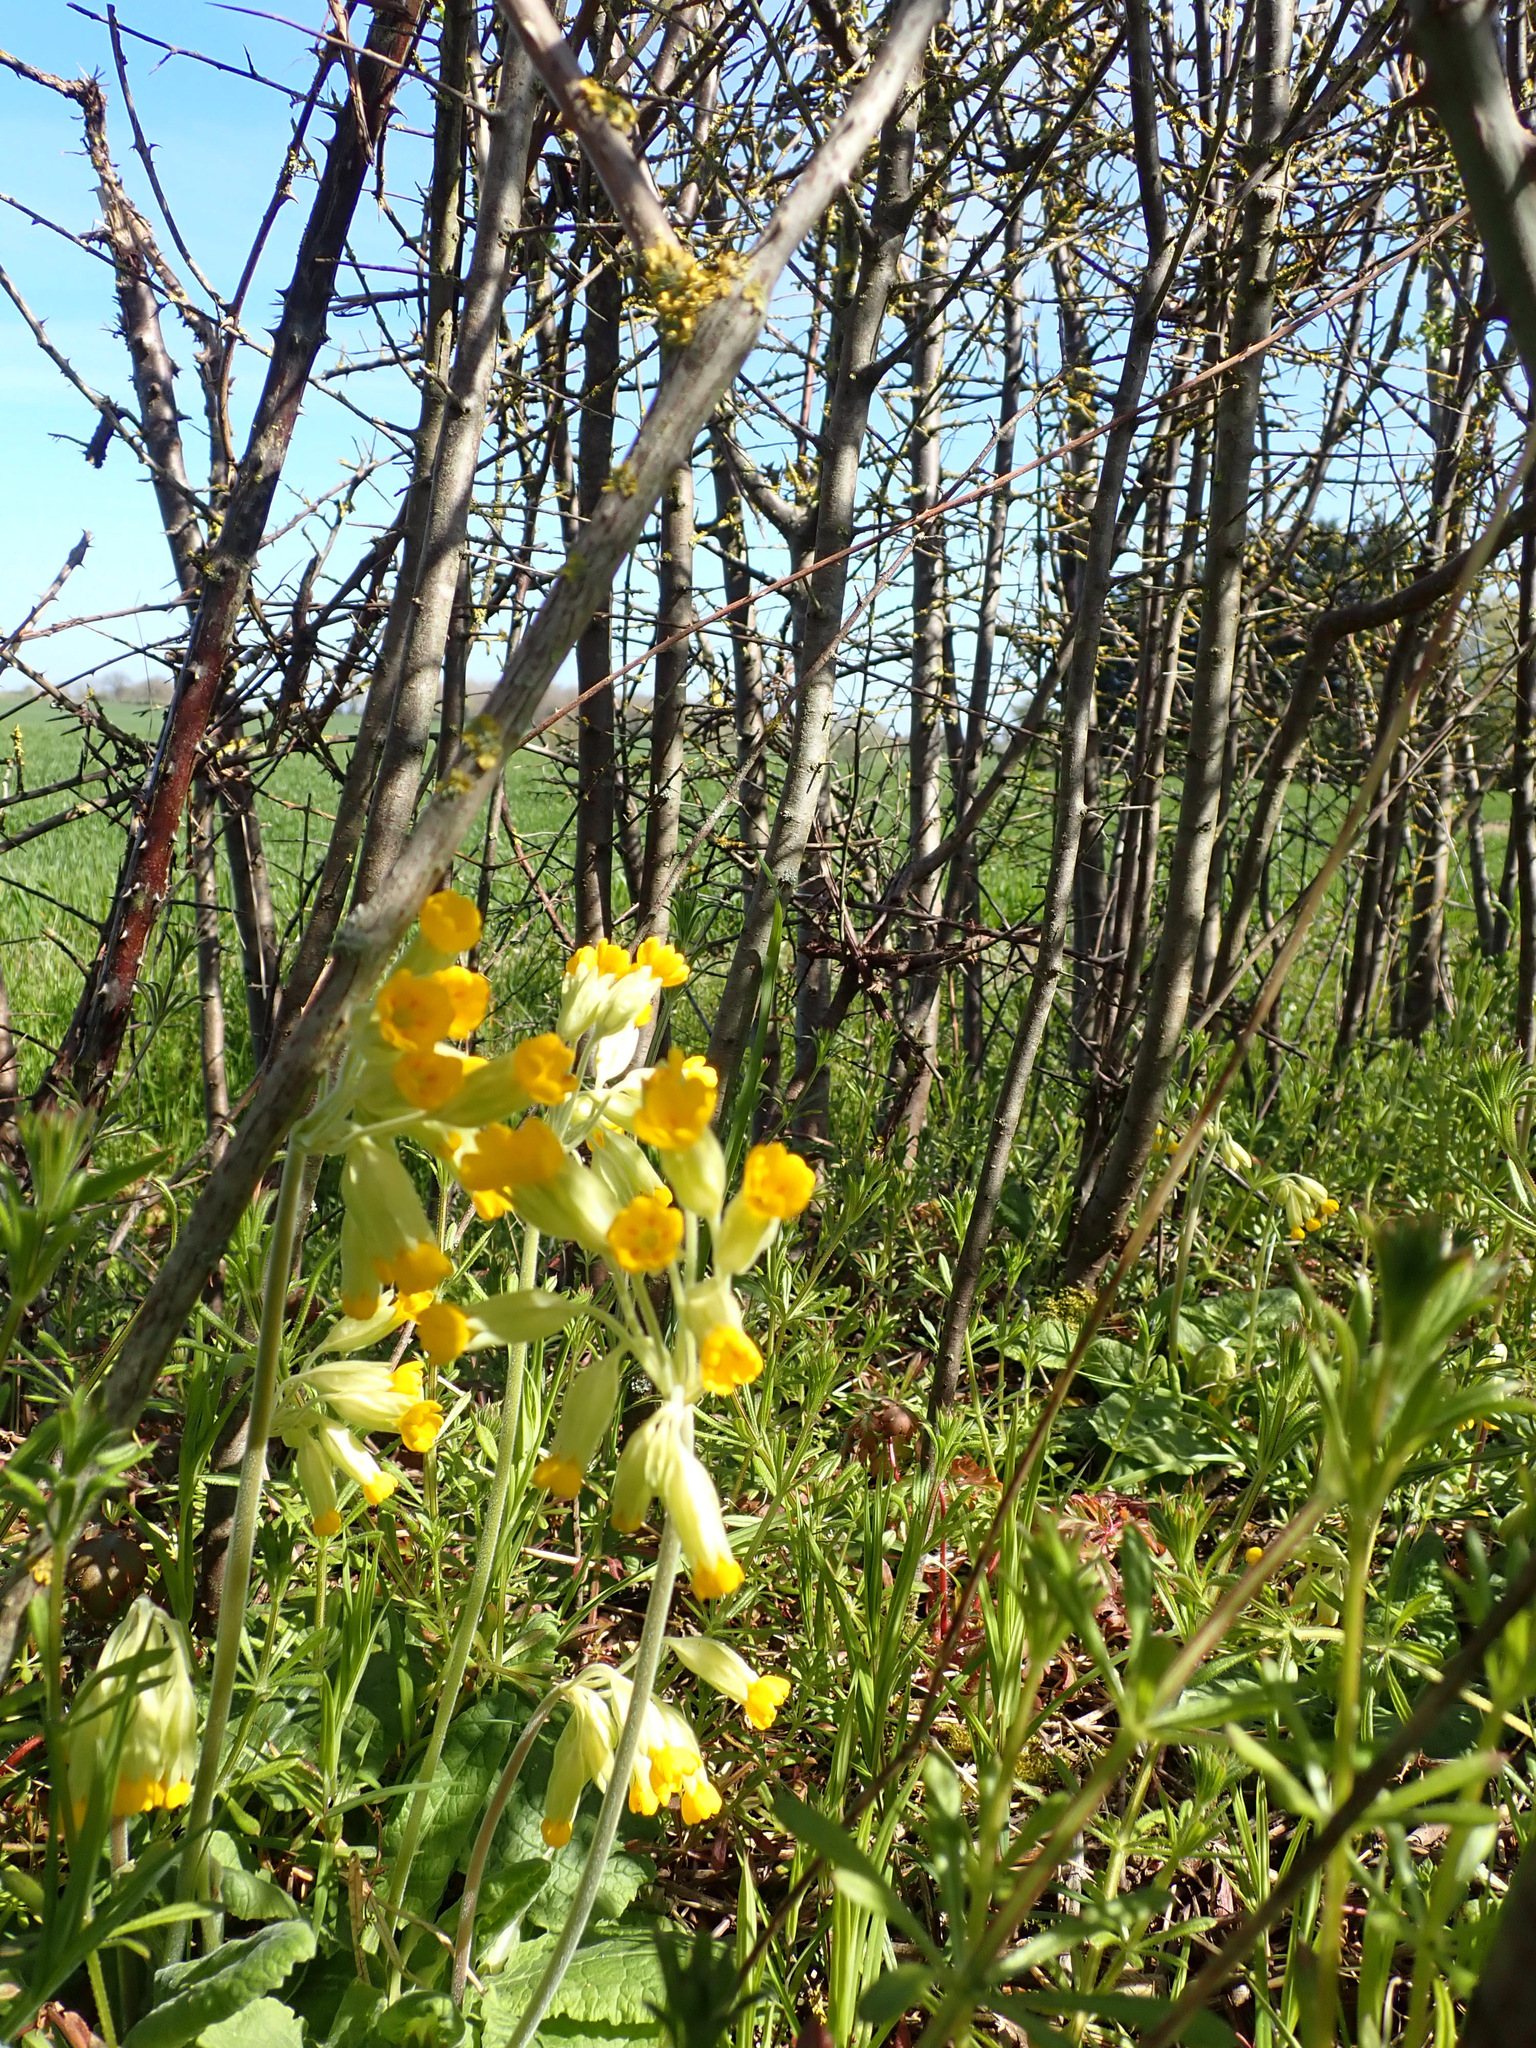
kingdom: Plantae
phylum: Tracheophyta
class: Magnoliopsida
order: Ericales
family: Primulaceae
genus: Primula
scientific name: Primula veris
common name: Cowslip
